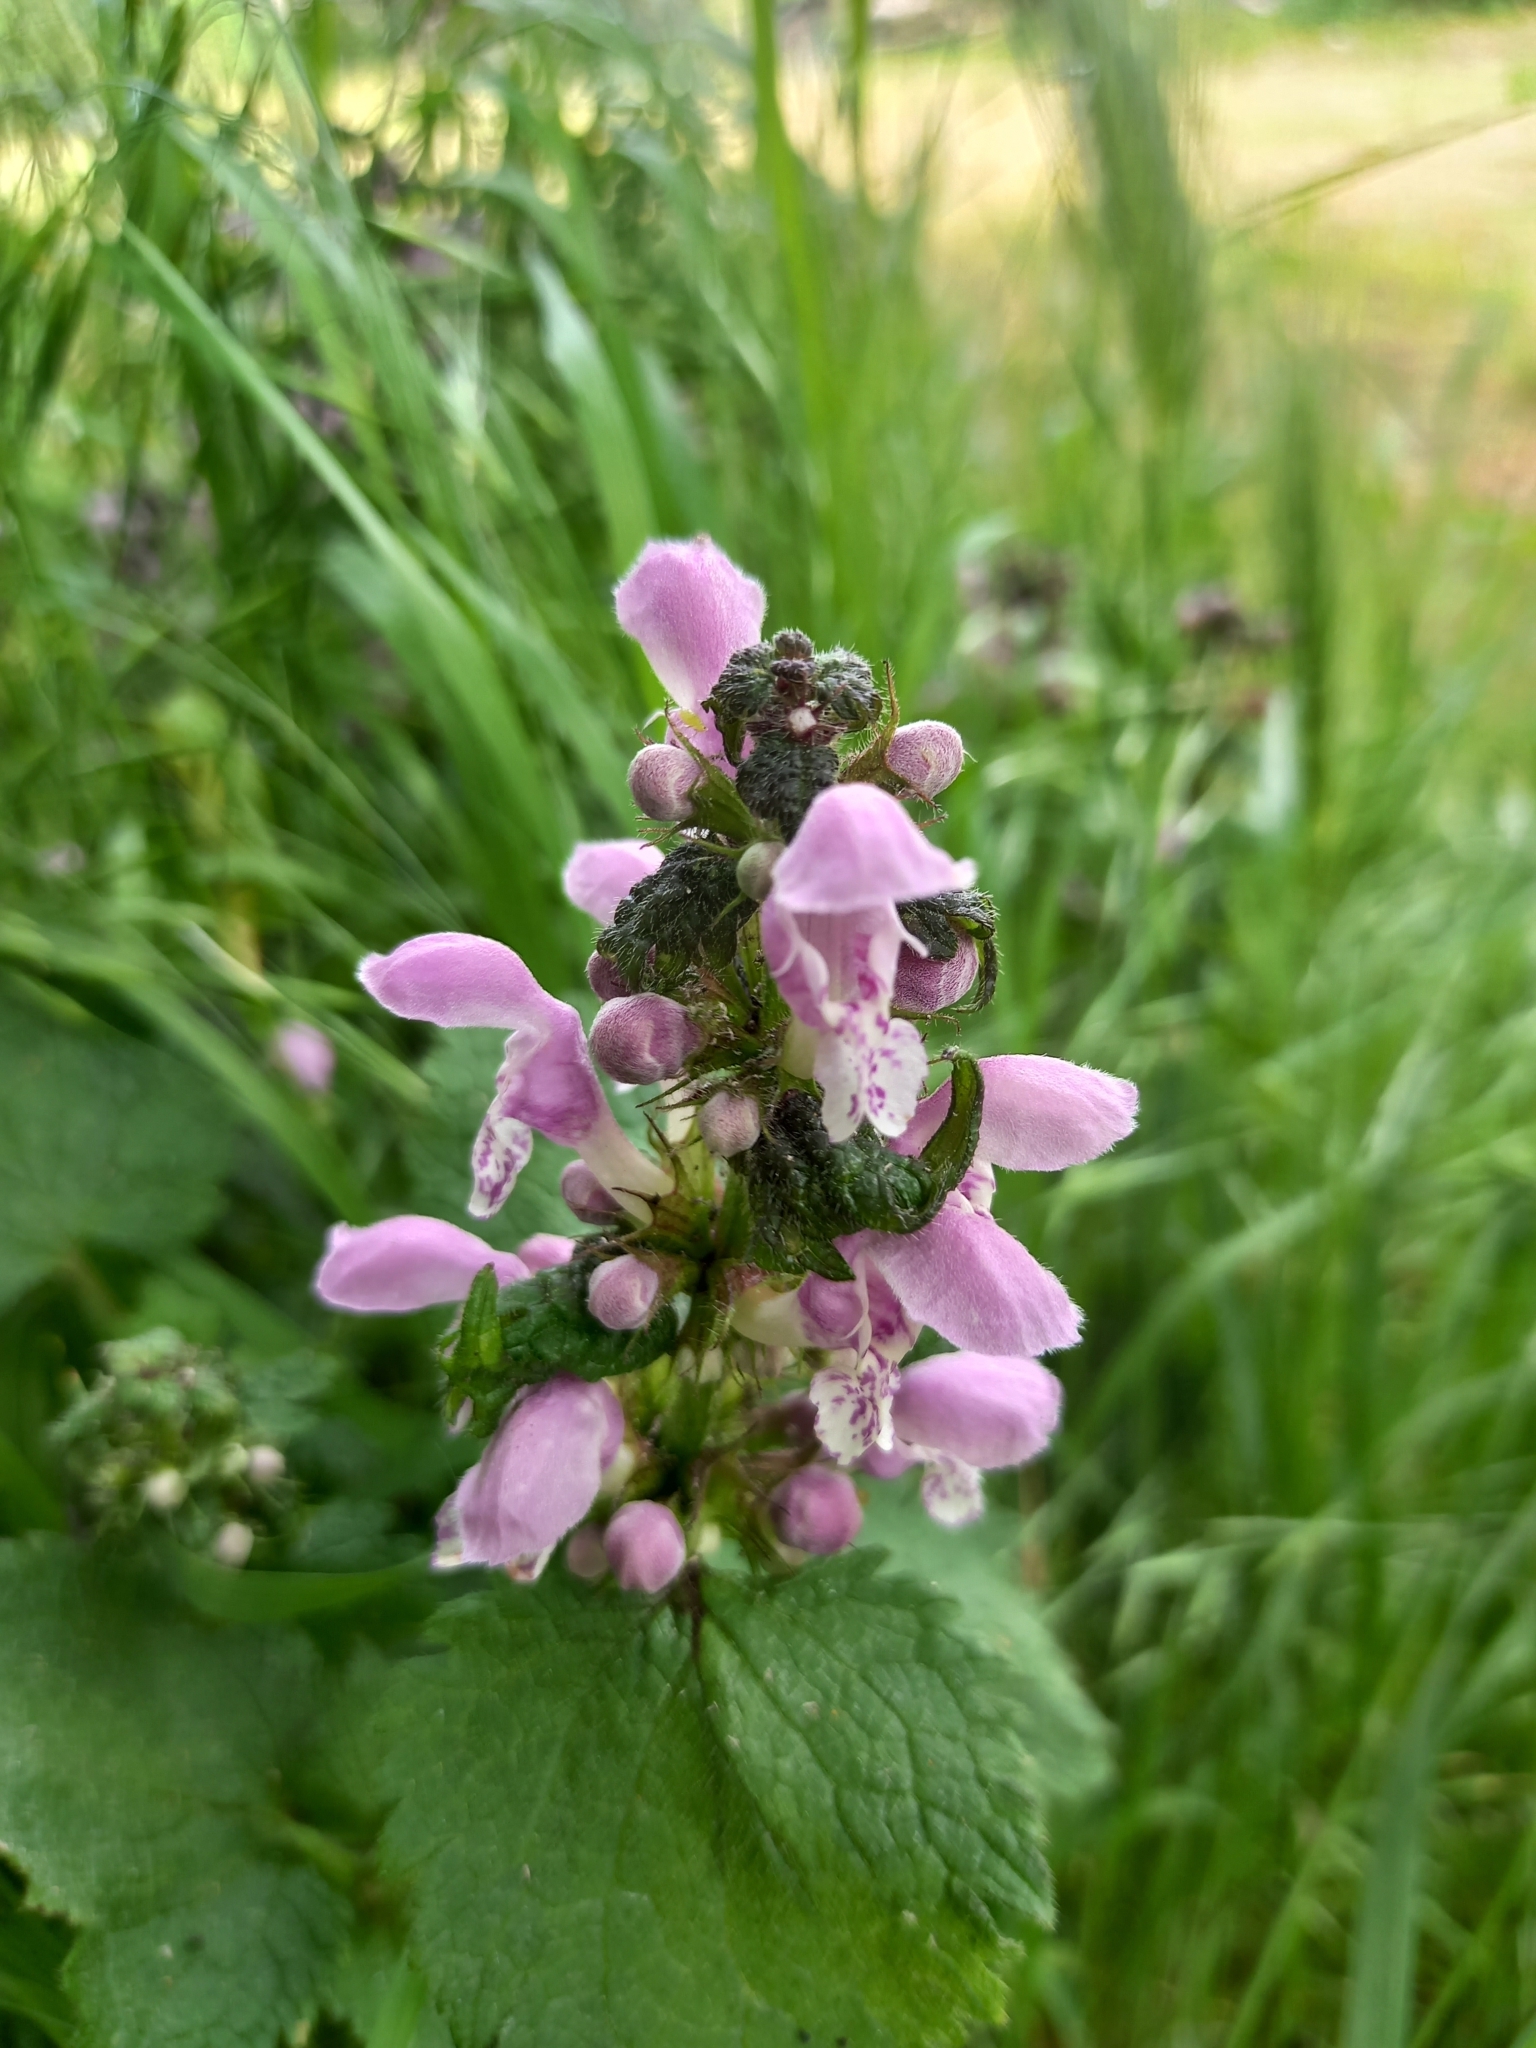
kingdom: Plantae
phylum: Tracheophyta
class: Magnoliopsida
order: Lamiales
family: Lamiaceae
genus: Lamium
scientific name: Lamium maculatum
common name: Spotted dead-nettle
